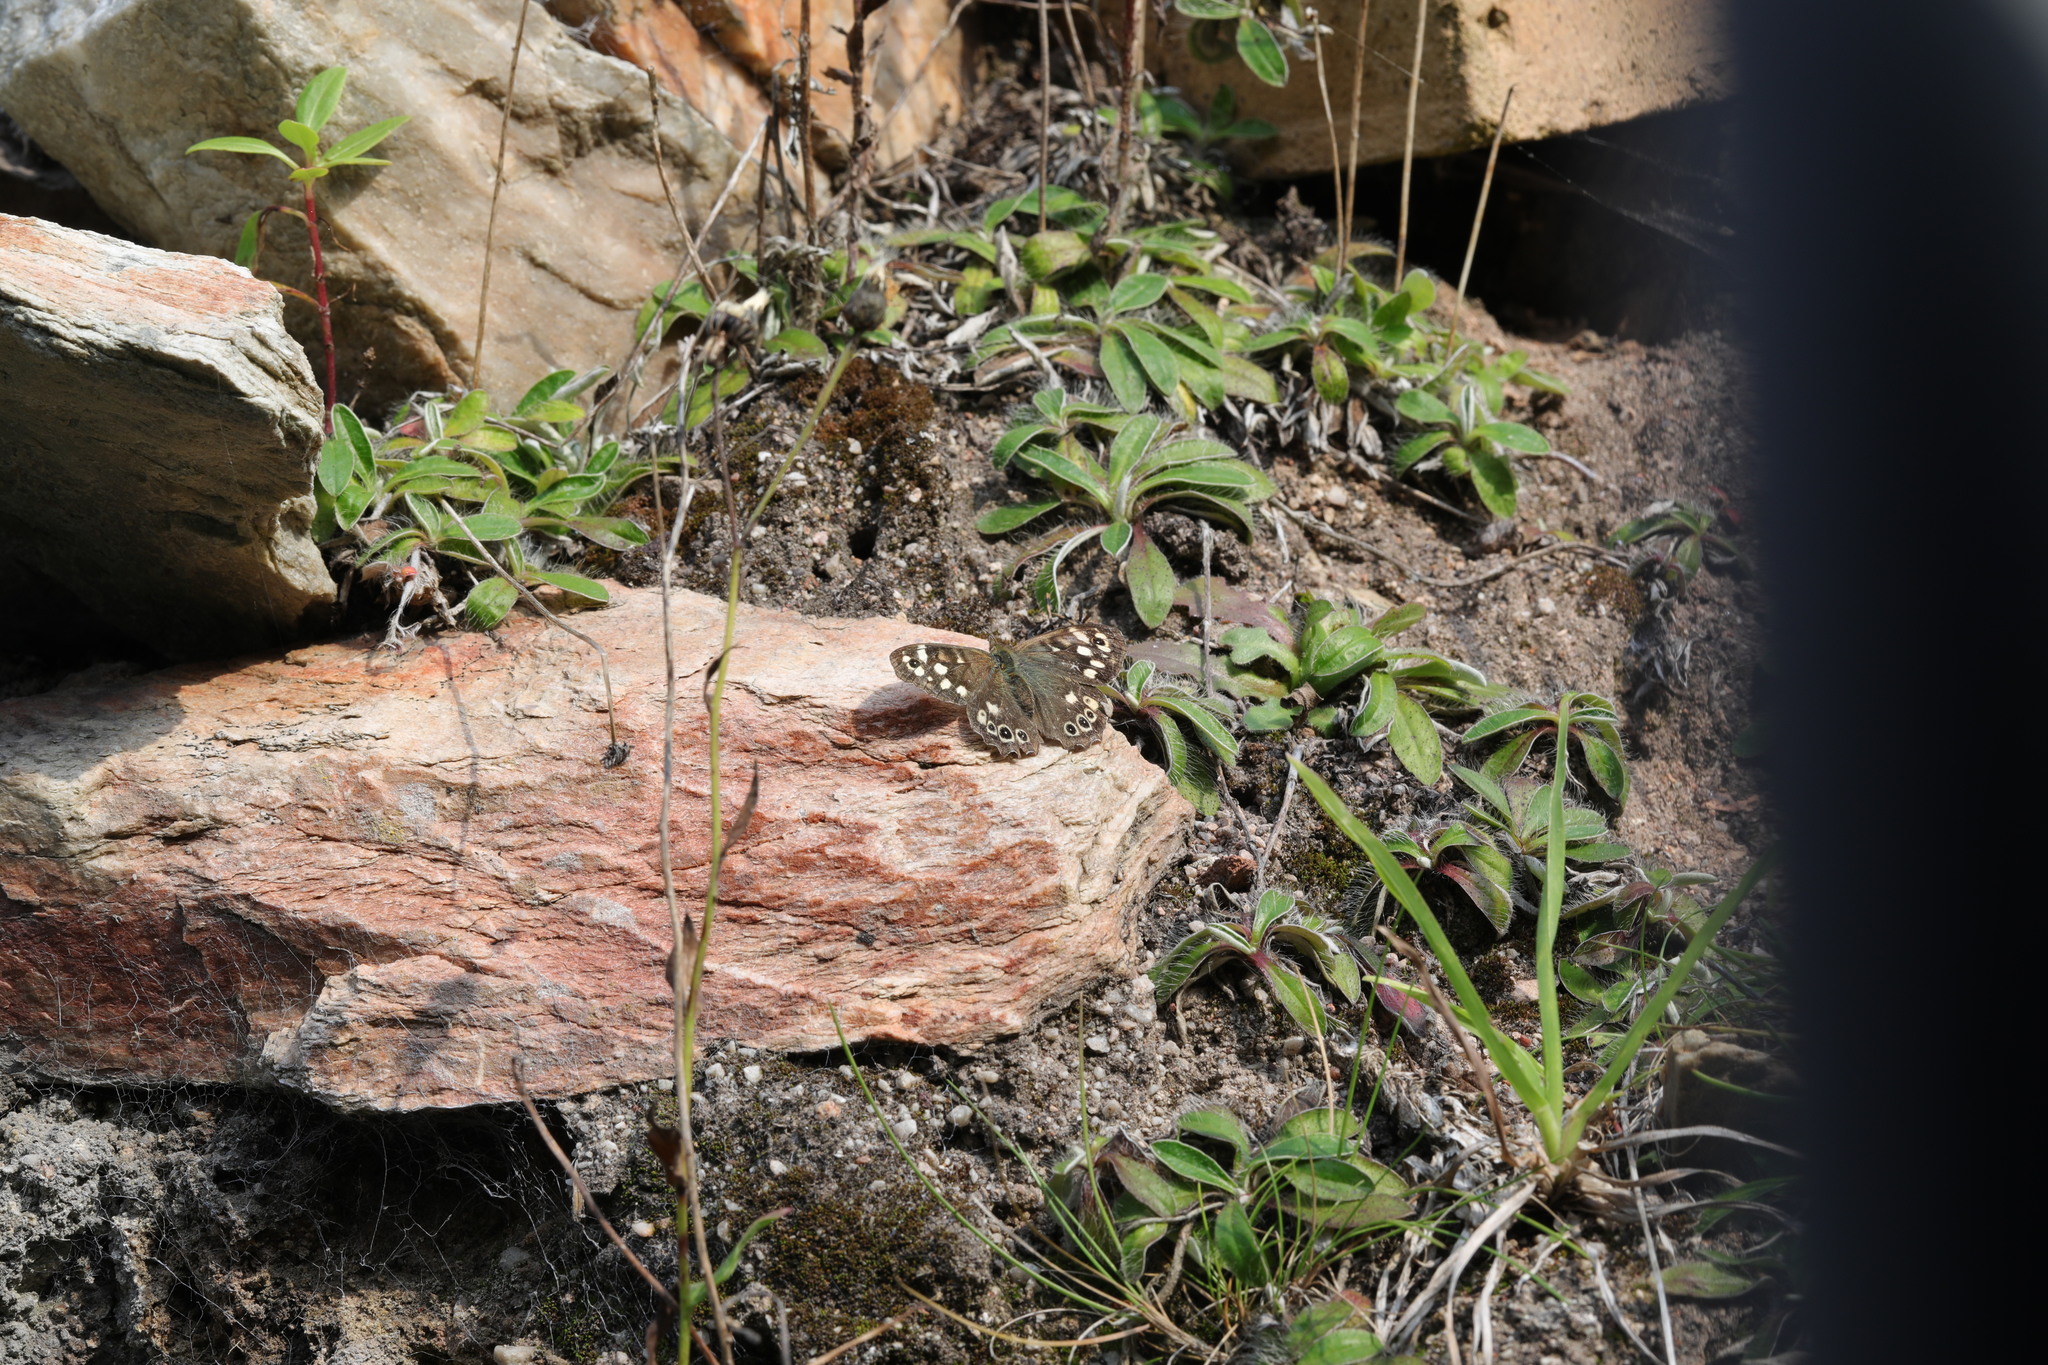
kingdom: Animalia
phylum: Arthropoda
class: Insecta
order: Lepidoptera
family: Nymphalidae
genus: Pararge
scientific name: Pararge aegeria
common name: Speckled wood
